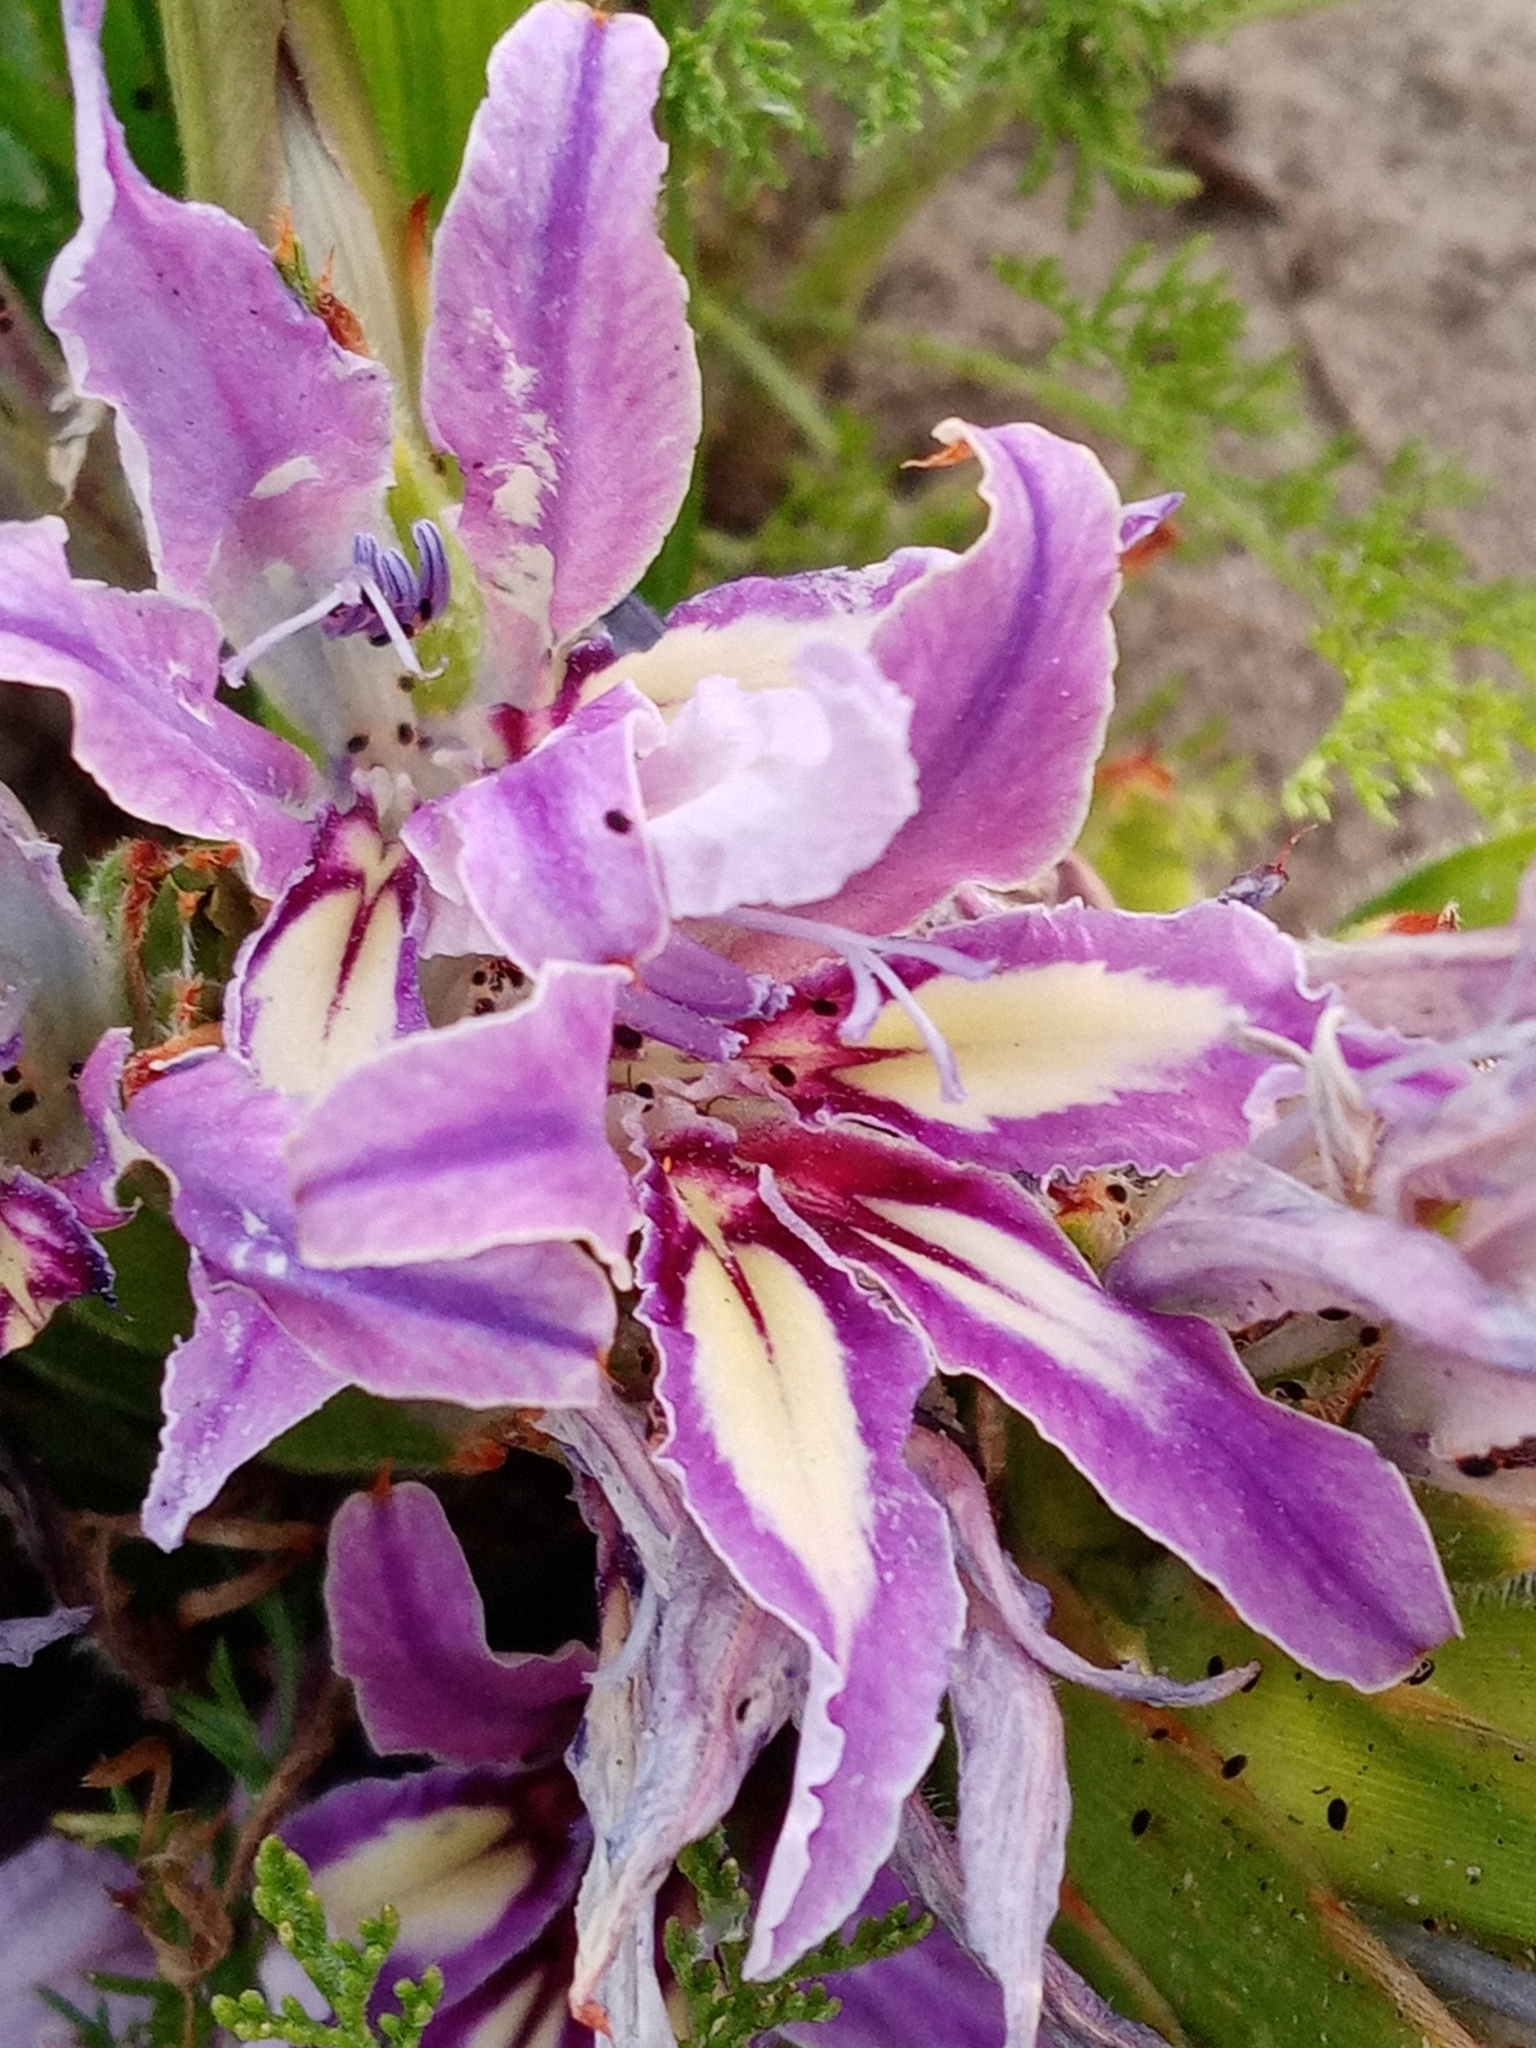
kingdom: Plantae
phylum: Tracheophyta
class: Liliopsida
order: Asparagales
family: Iridaceae
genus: Babiana
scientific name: Babiana ambigua
